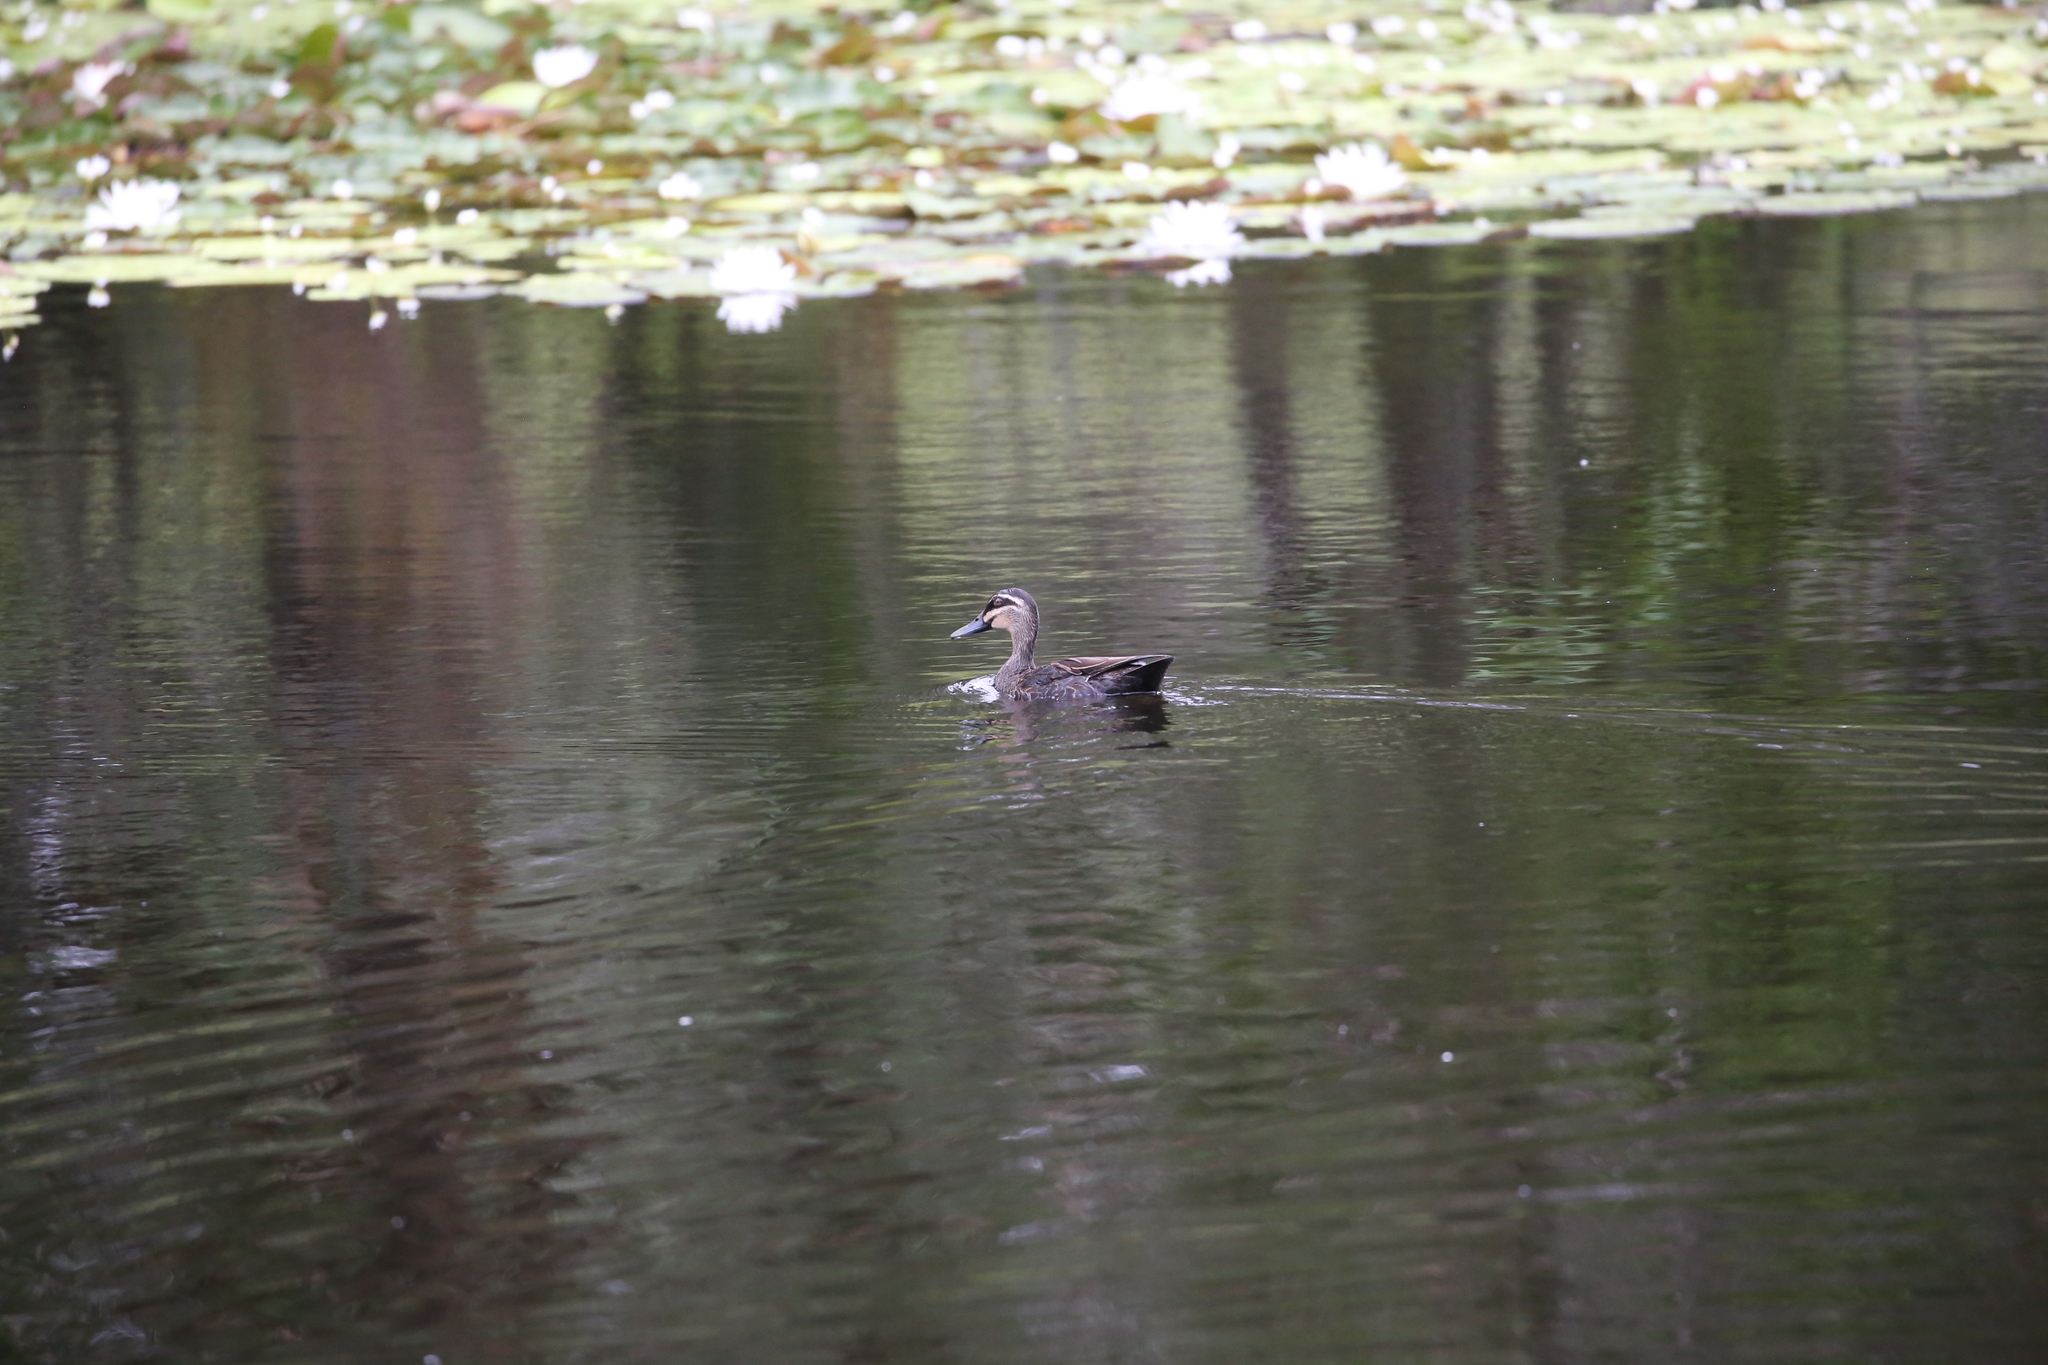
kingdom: Animalia
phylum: Chordata
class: Aves
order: Anseriformes
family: Anatidae
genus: Anas
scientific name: Anas superciliosa
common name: Pacific black duck
